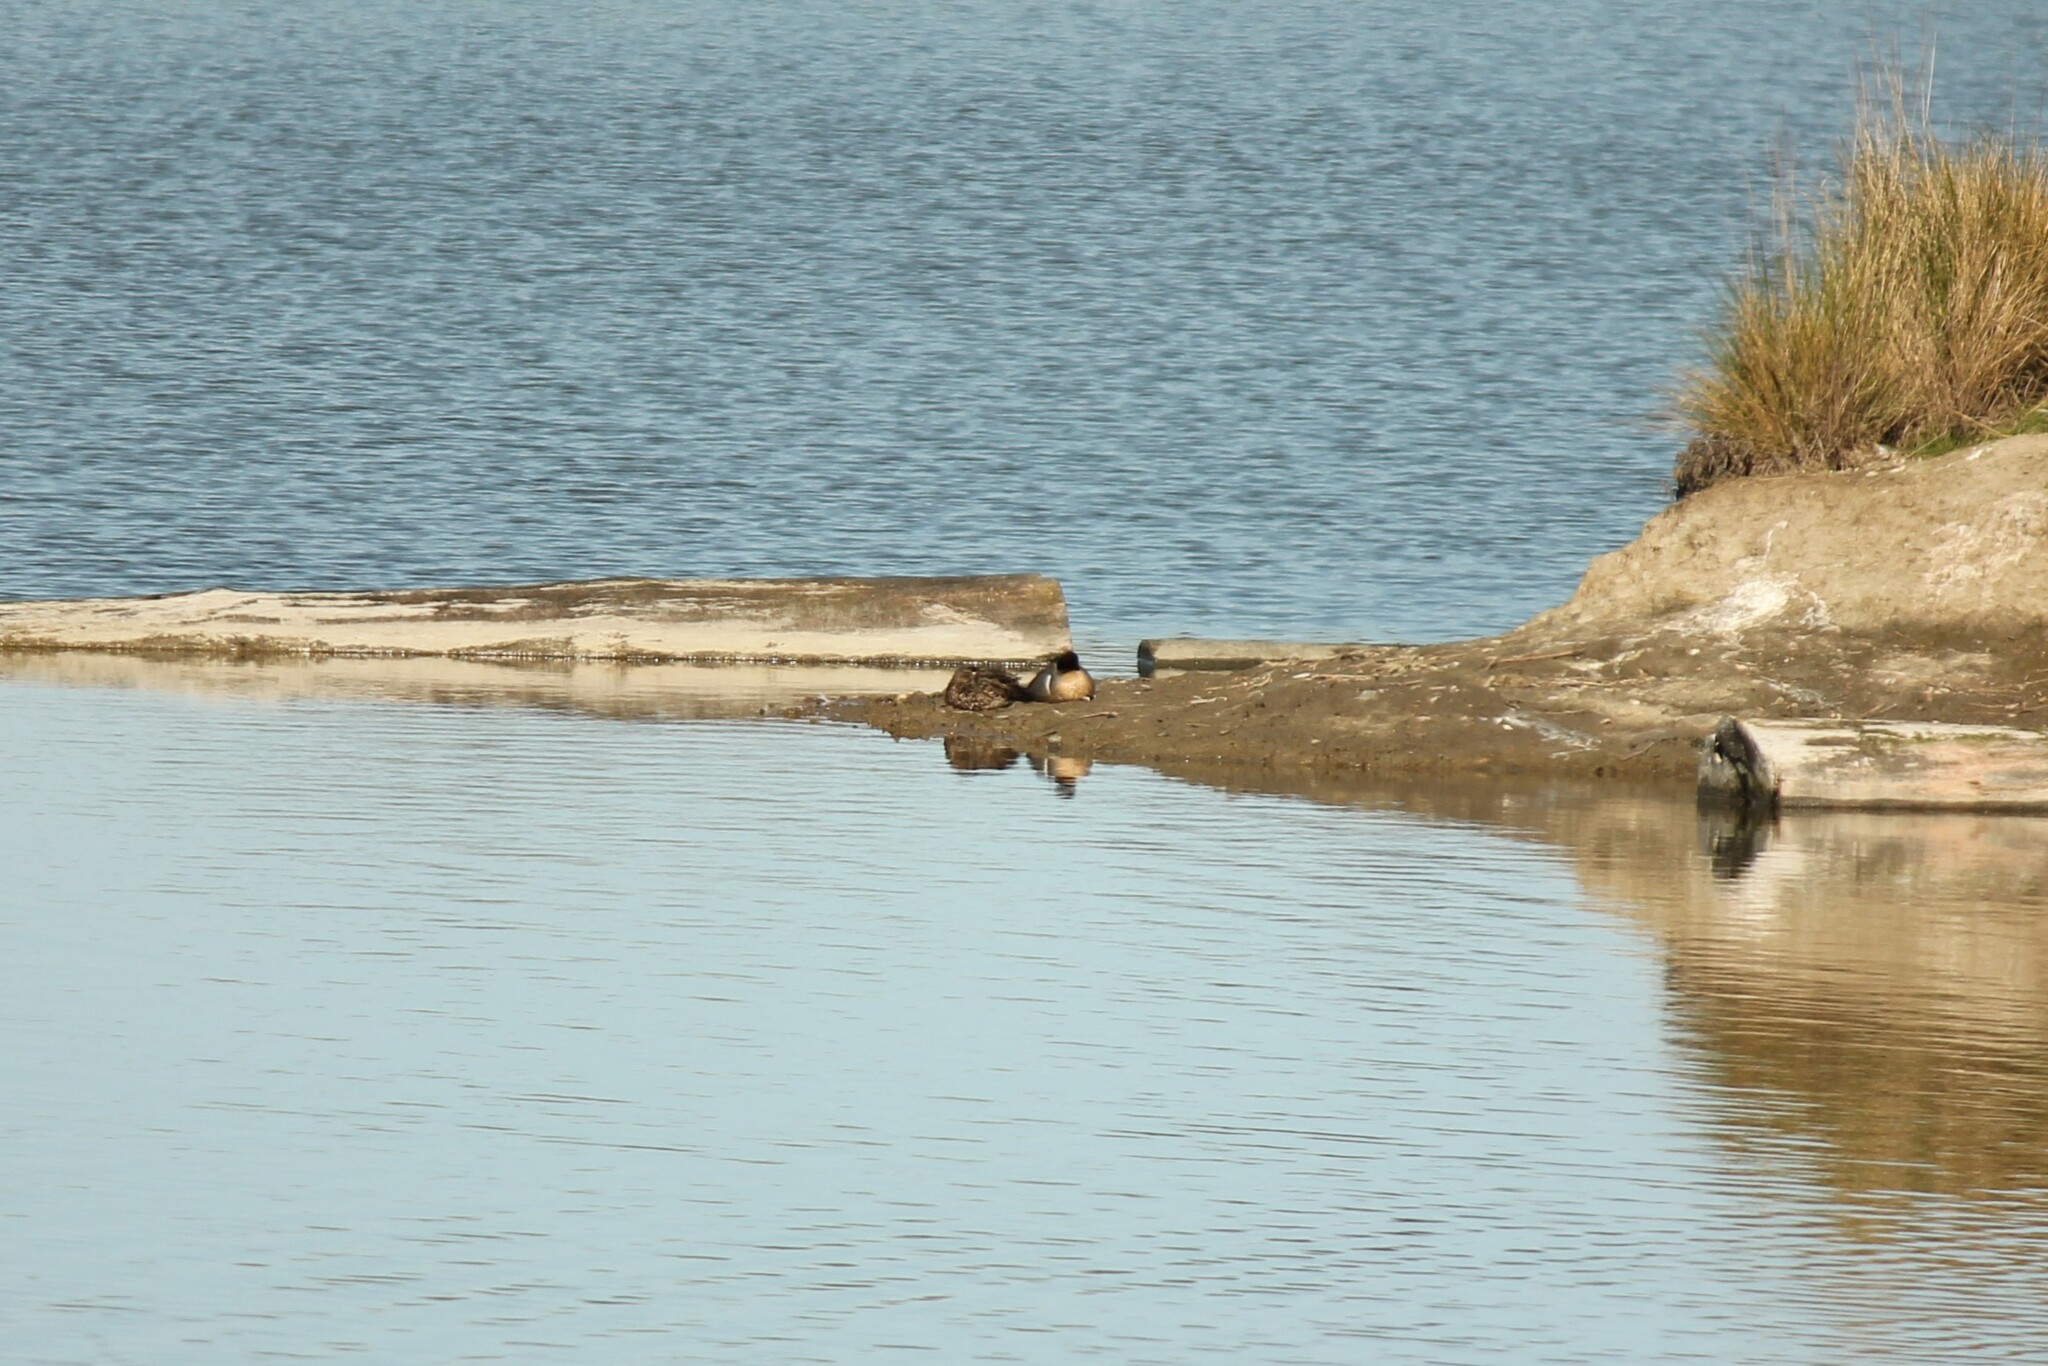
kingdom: Animalia
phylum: Chordata
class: Aves
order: Anseriformes
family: Anatidae
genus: Anas
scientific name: Anas crecca
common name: Eurasian teal
